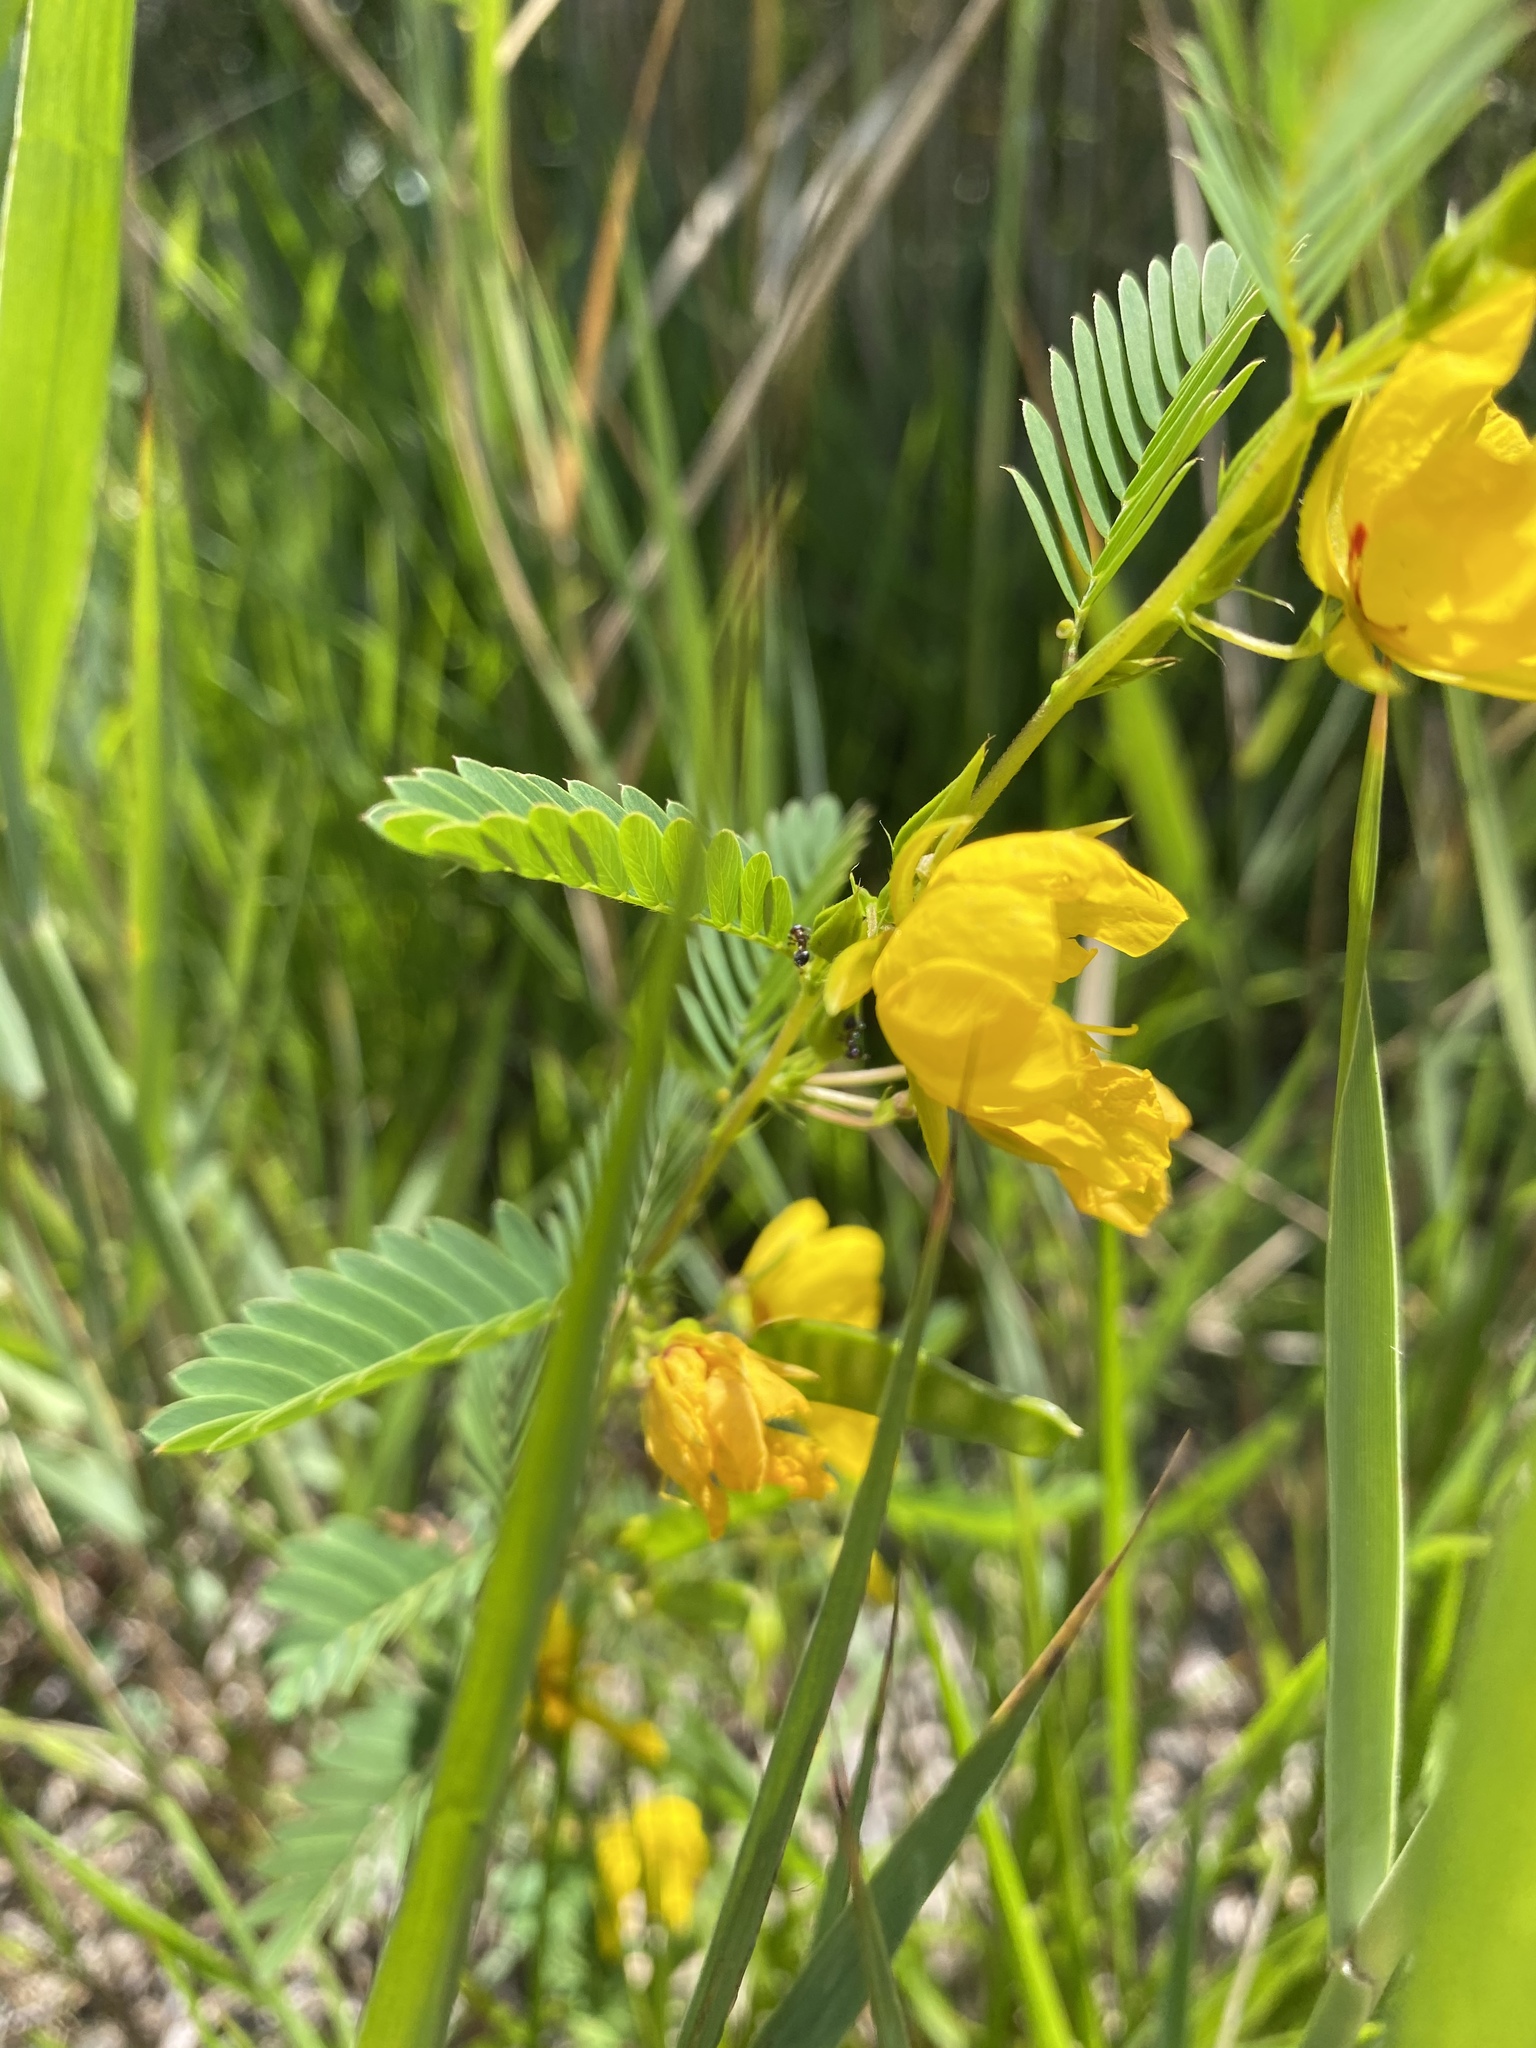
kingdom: Plantae
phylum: Tracheophyta
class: Magnoliopsida
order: Fabales
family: Fabaceae
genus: Chamaecrista
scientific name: Chamaecrista fasciculata
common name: Golden cassia
